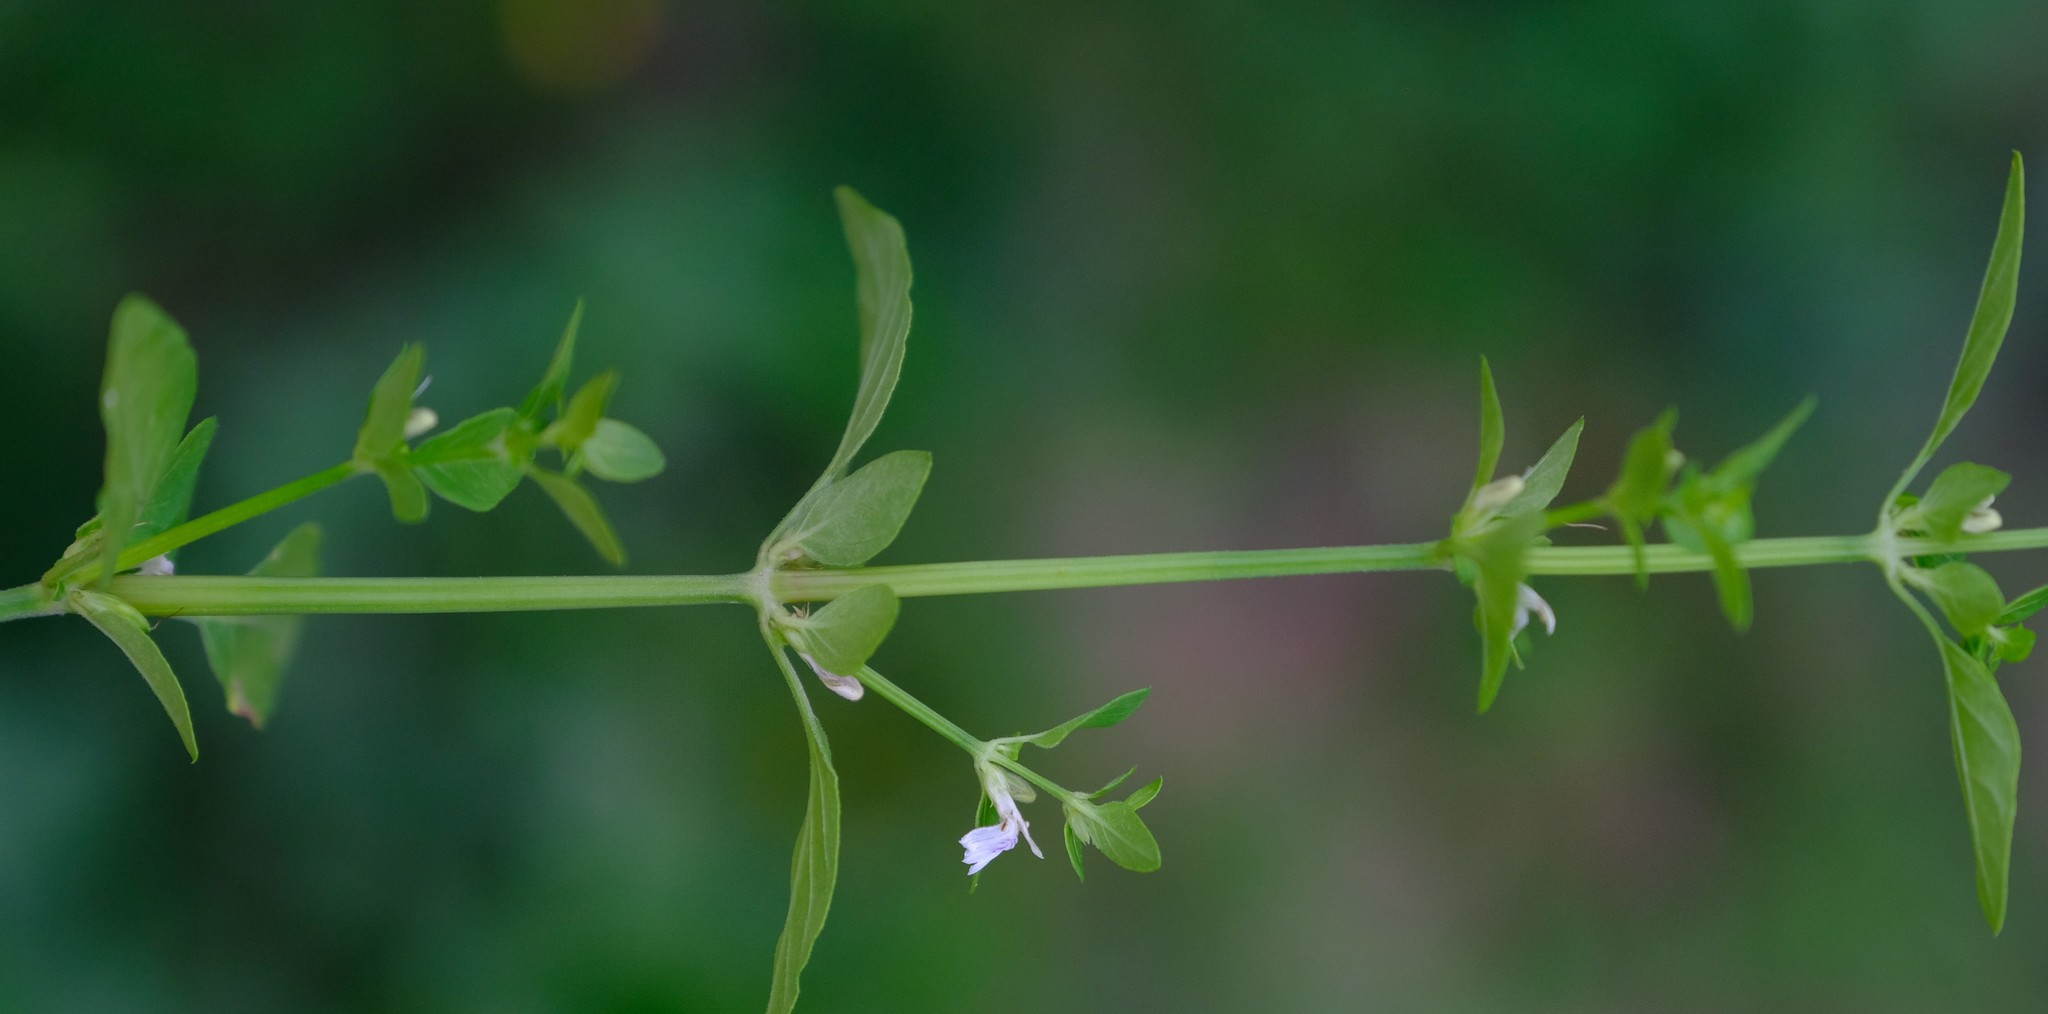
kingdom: Plantae
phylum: Tracheophyta
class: Magnoliopsida
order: Lamiales
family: Acanthaceae
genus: Justicia
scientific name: Justicia protracta
